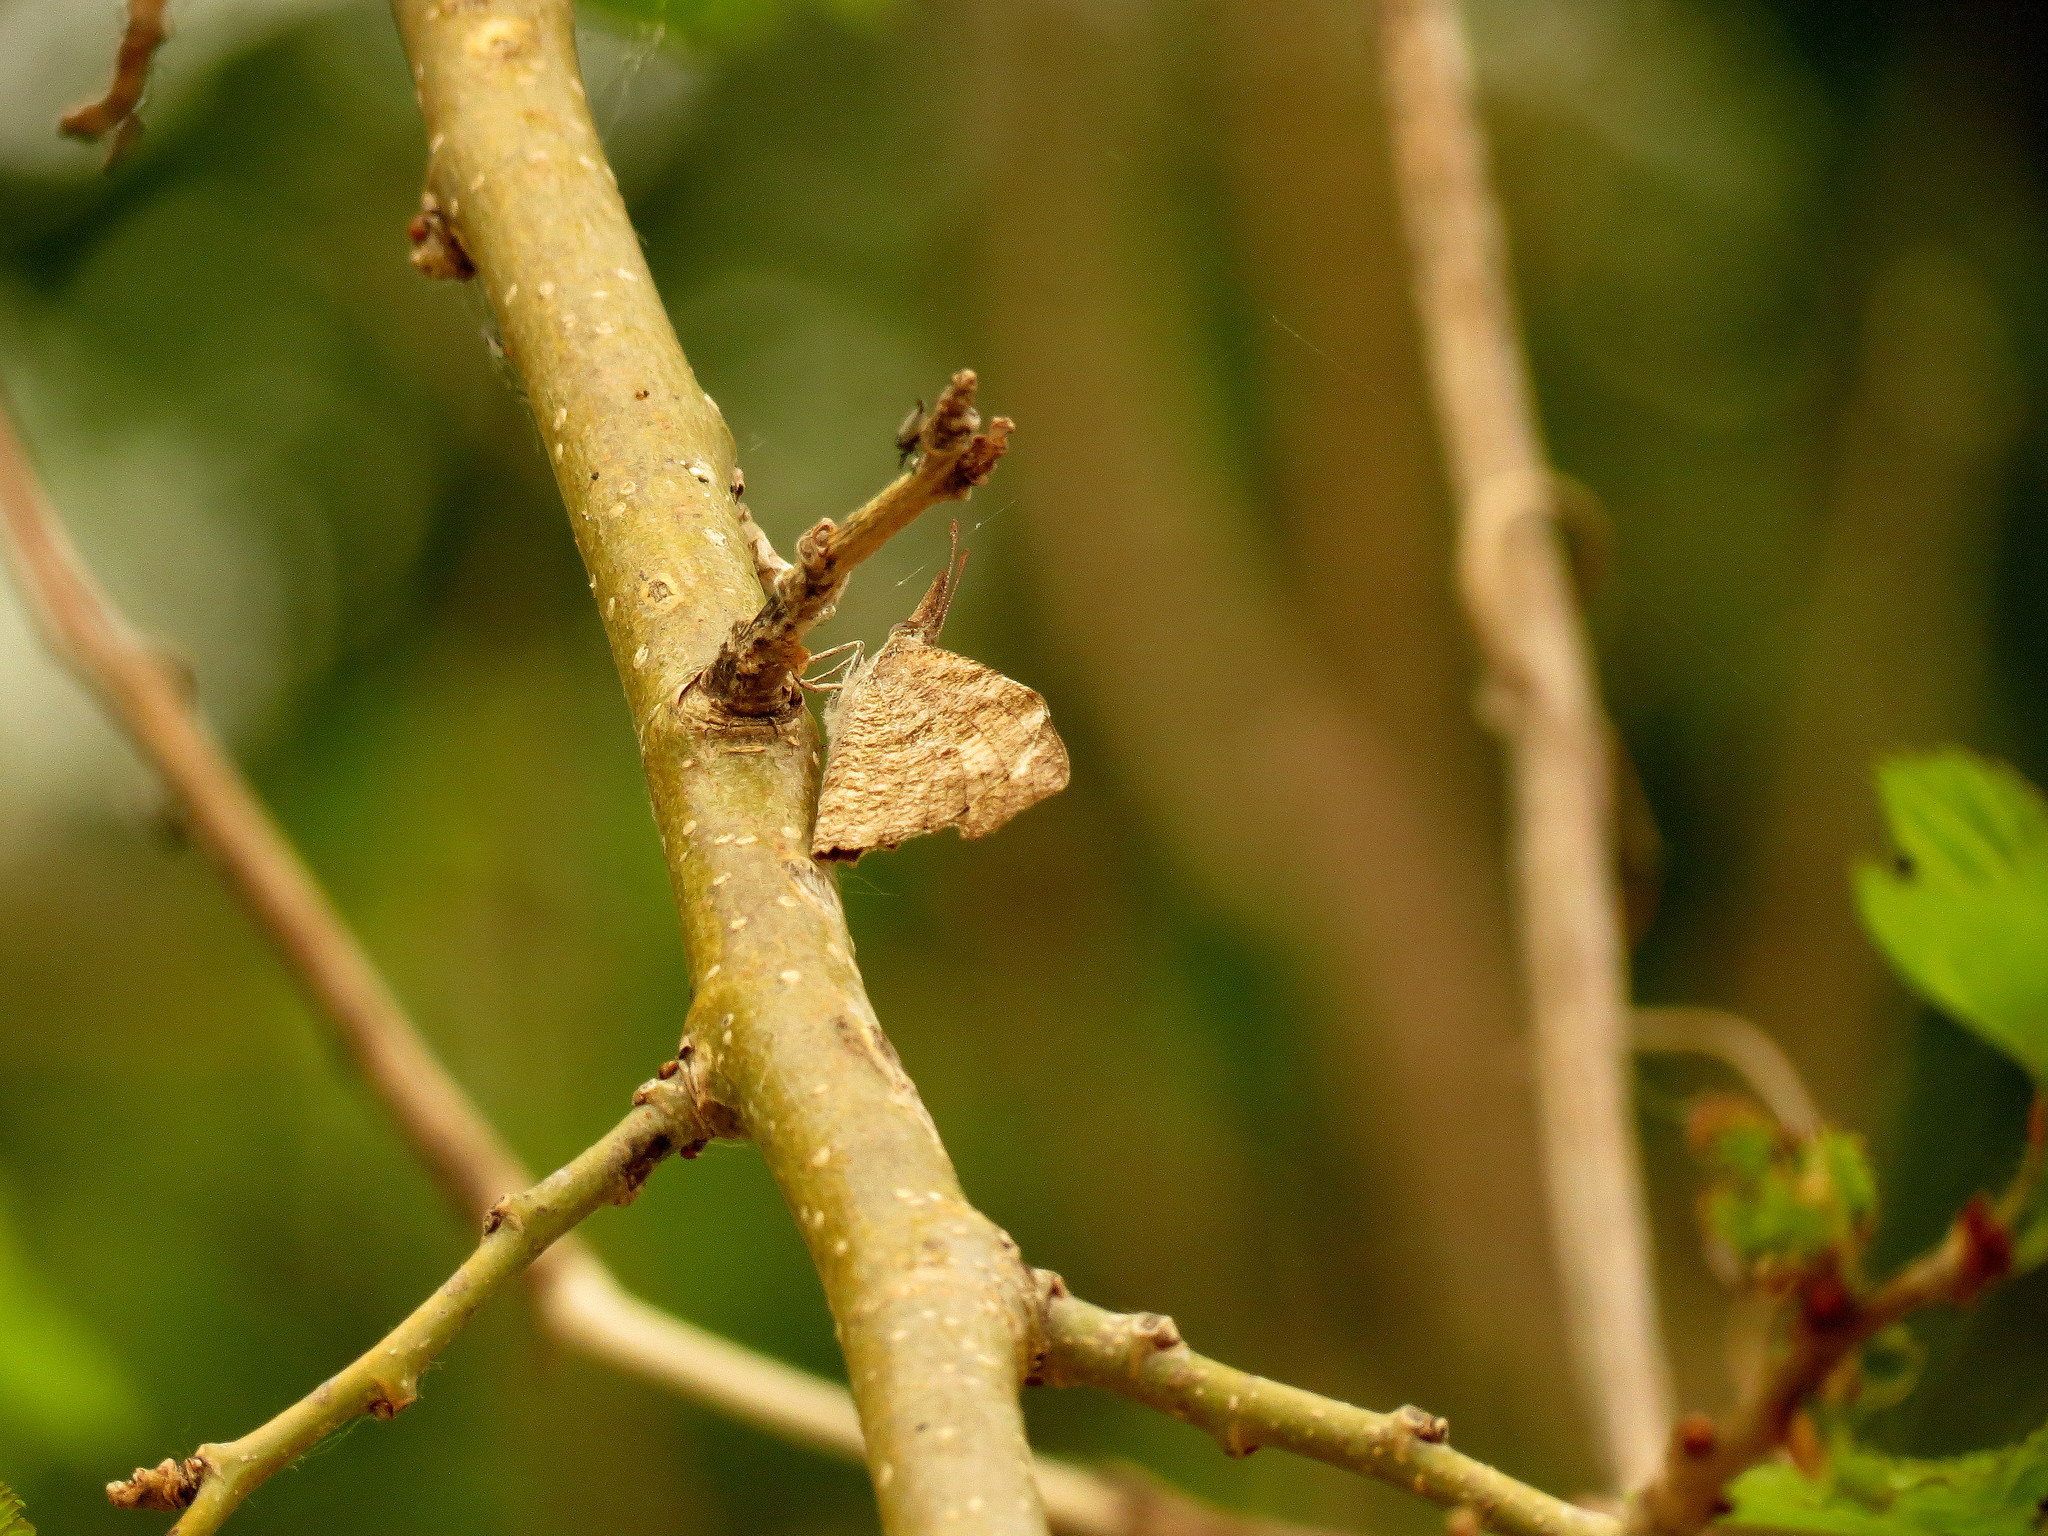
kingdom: Animalia
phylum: Arthropoda
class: Insecta
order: Lepidoptera
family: Nymphalidae
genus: Libytheana
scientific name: Libytheana carinenta
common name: American snout
